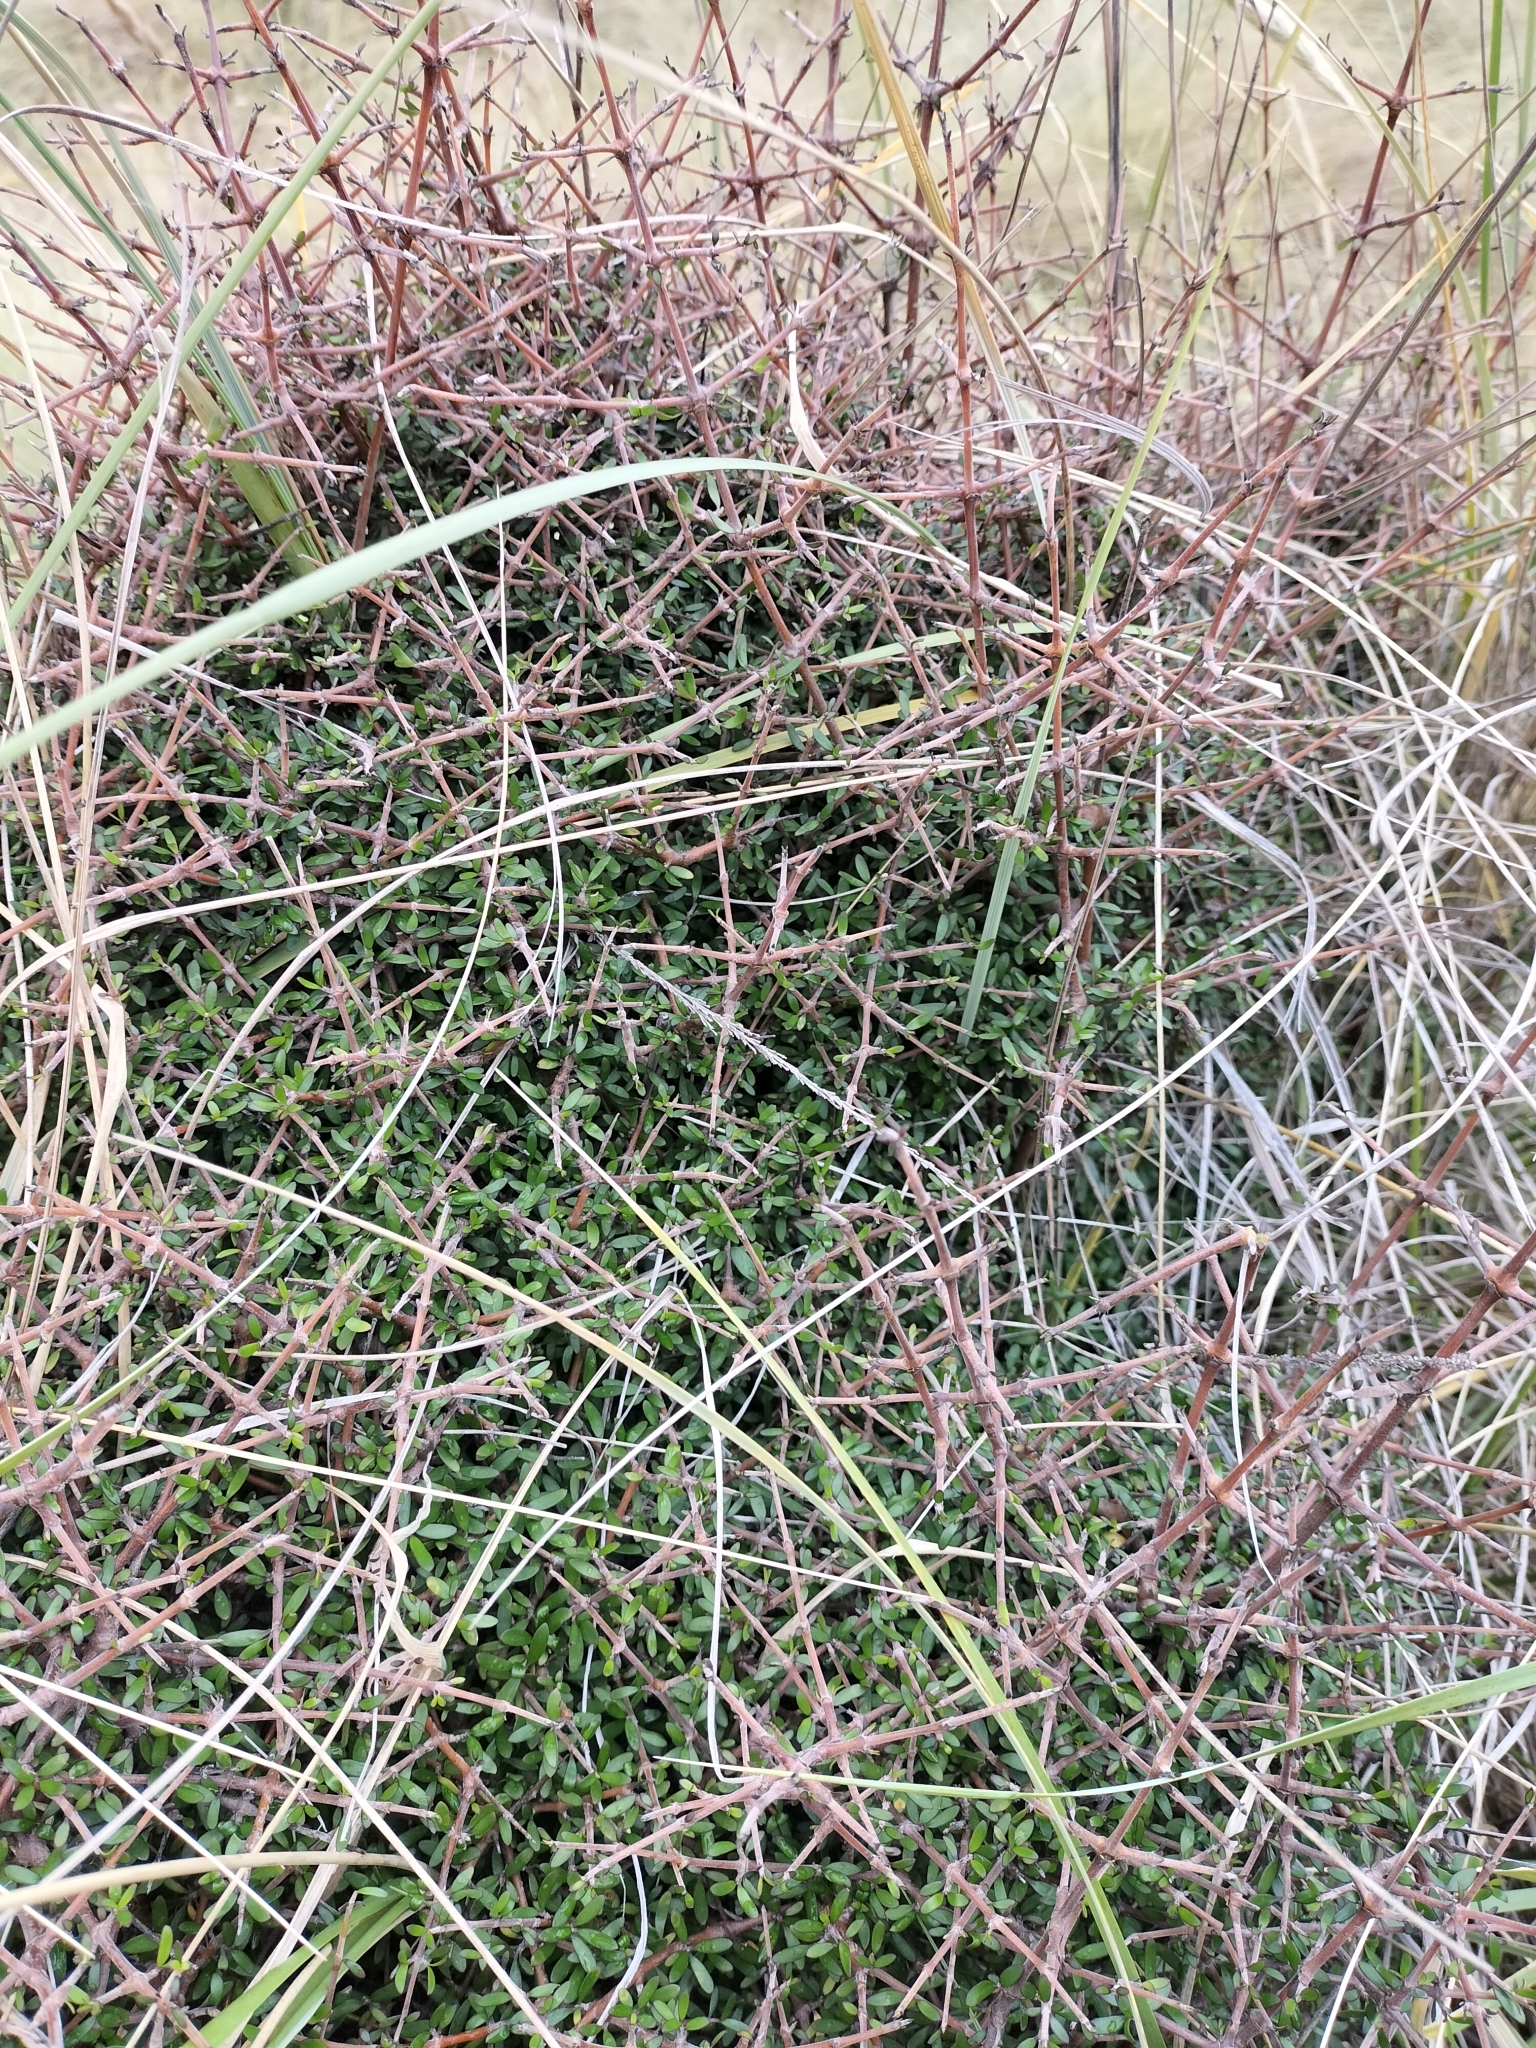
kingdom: Plantae
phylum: Tracheophyta
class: Magnoliopsida
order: Gentianales
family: Rubiaceae
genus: Coprosma
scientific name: Coprosma propinqua
